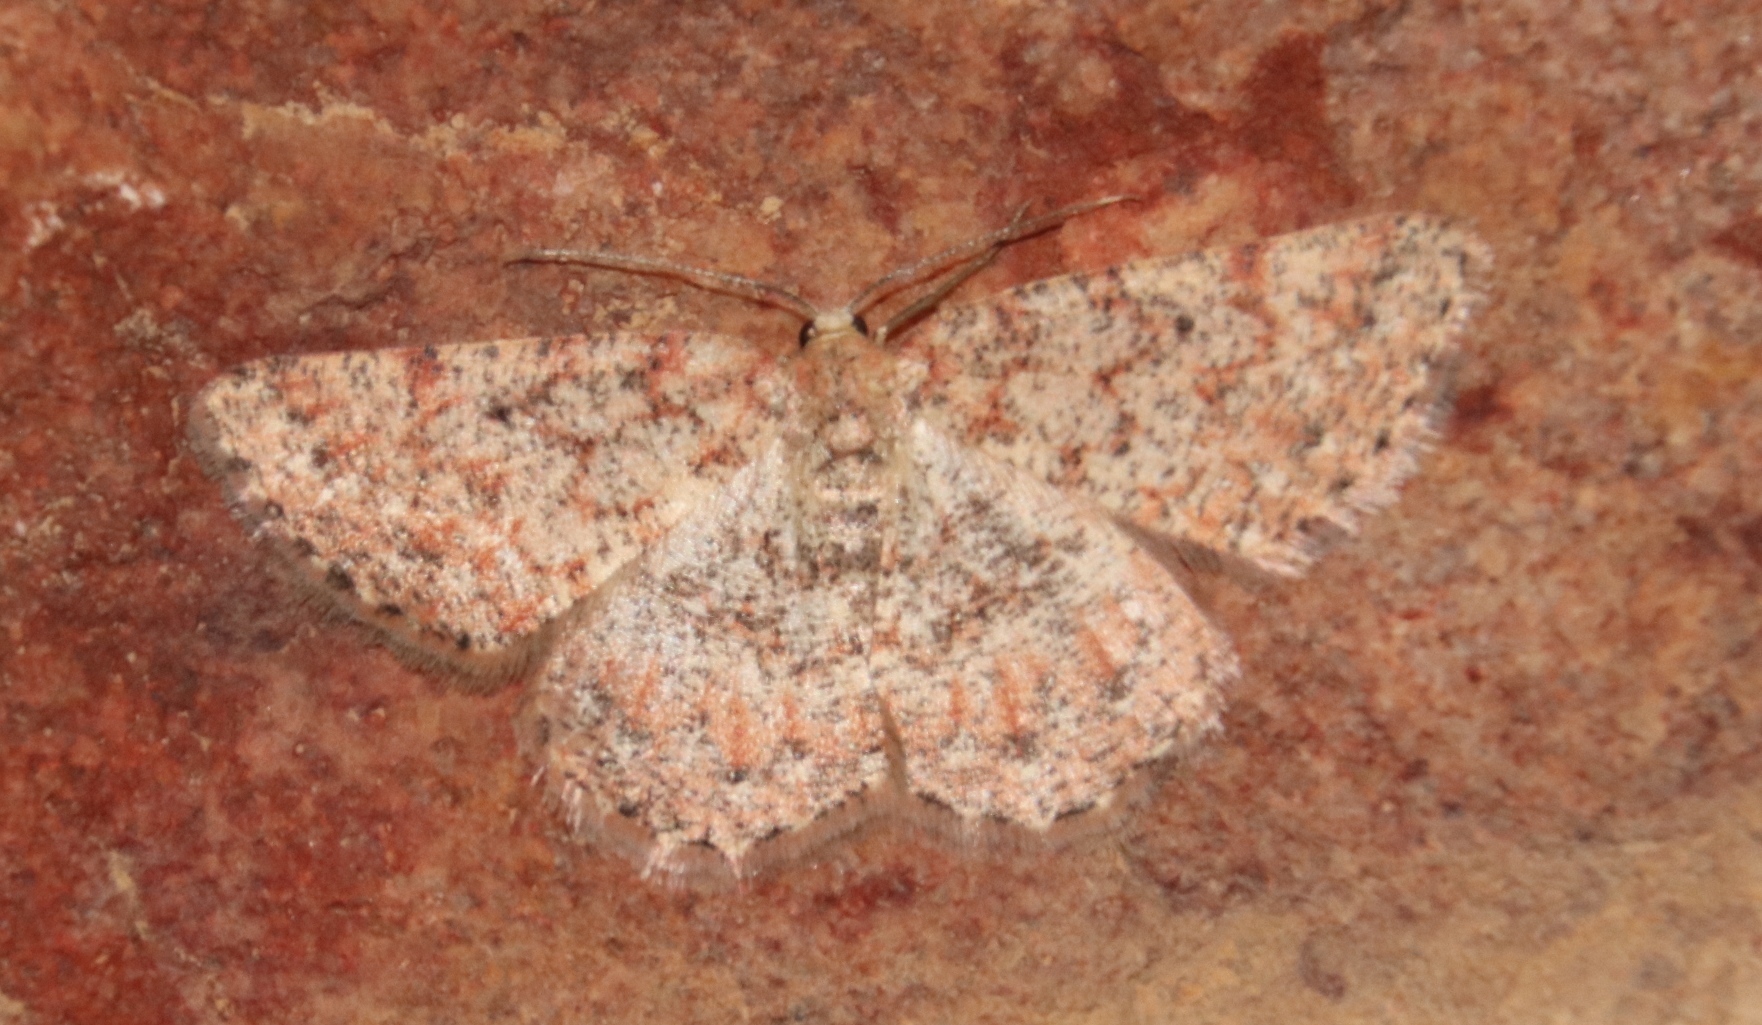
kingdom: Animalia
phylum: Arthropoda
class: Insecta
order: Lepidoptera
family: Geometridae
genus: Idaea
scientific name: Idaea fumilinea
